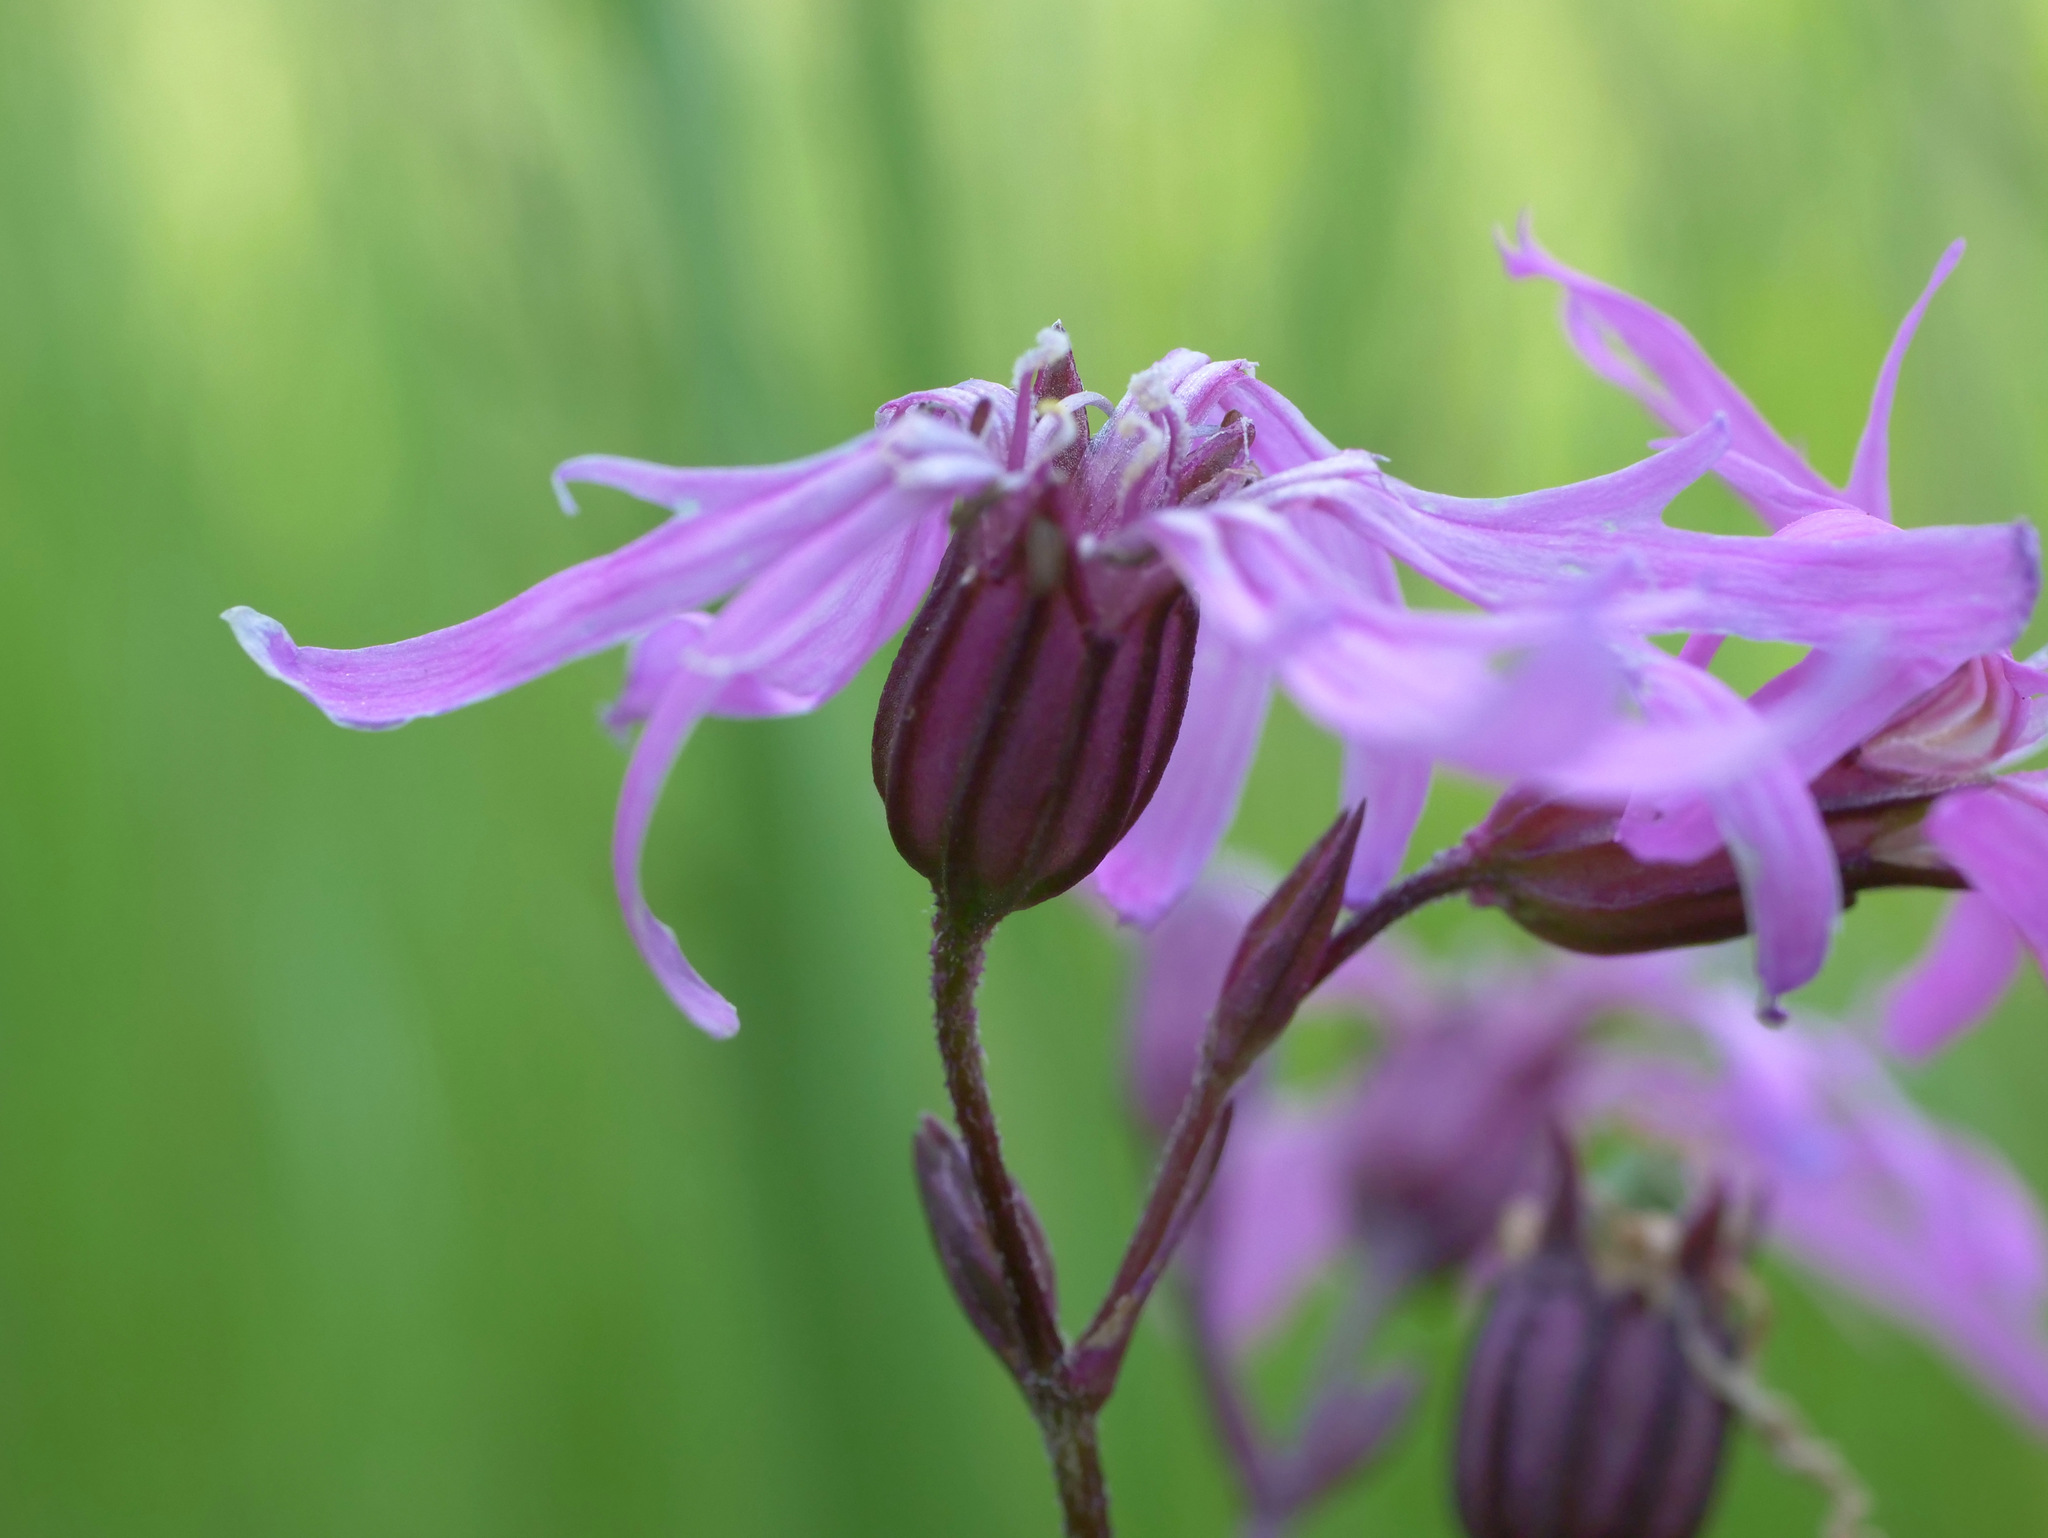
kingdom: Plantae
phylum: Tracheophyta
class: Magnoliopsida
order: Caryophyllales
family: Caryophyllaceae
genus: Silene
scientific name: Silene flos-cuculi
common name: Ragged-robin
